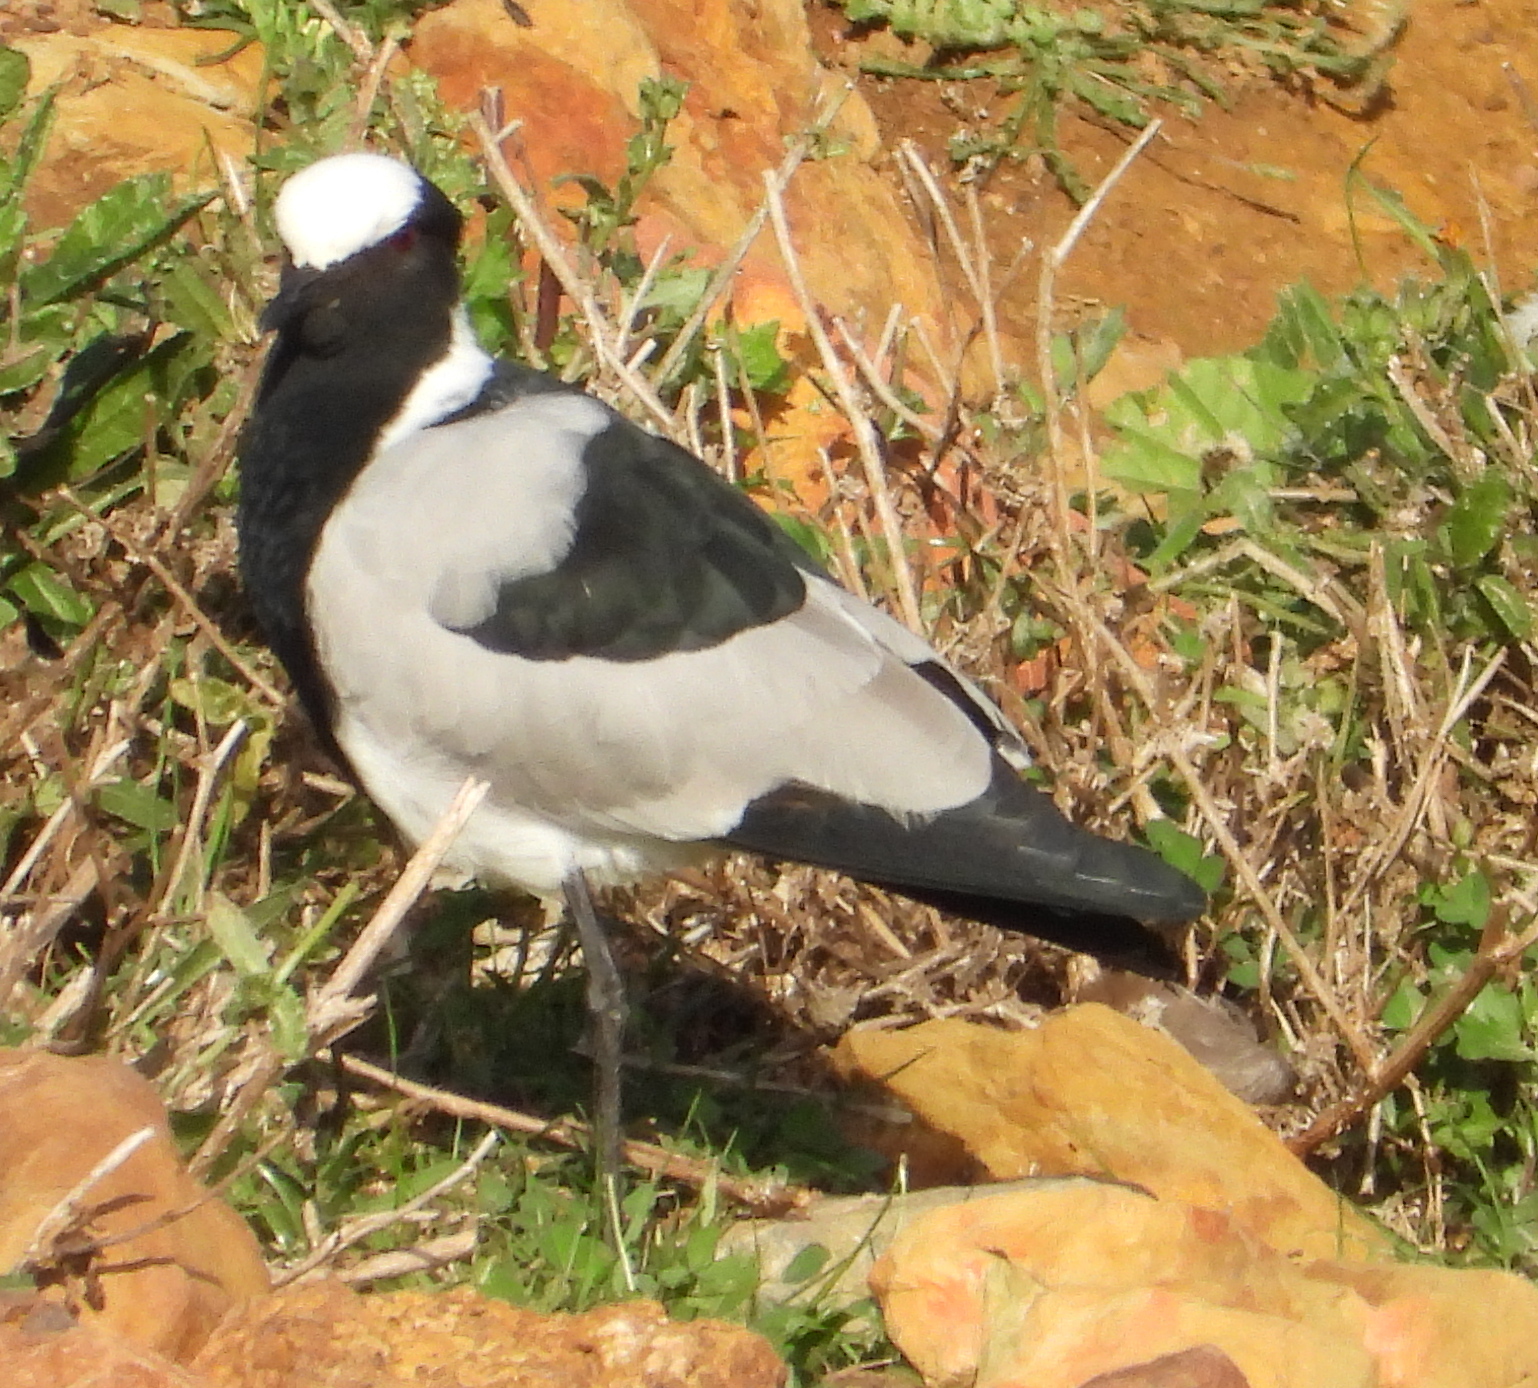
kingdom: Animalia
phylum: Chordata
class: Aves
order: Charadriiformes
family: Charadriidae
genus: Vanellus
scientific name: Vanellus armatus
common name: Blacksmith lapwing
